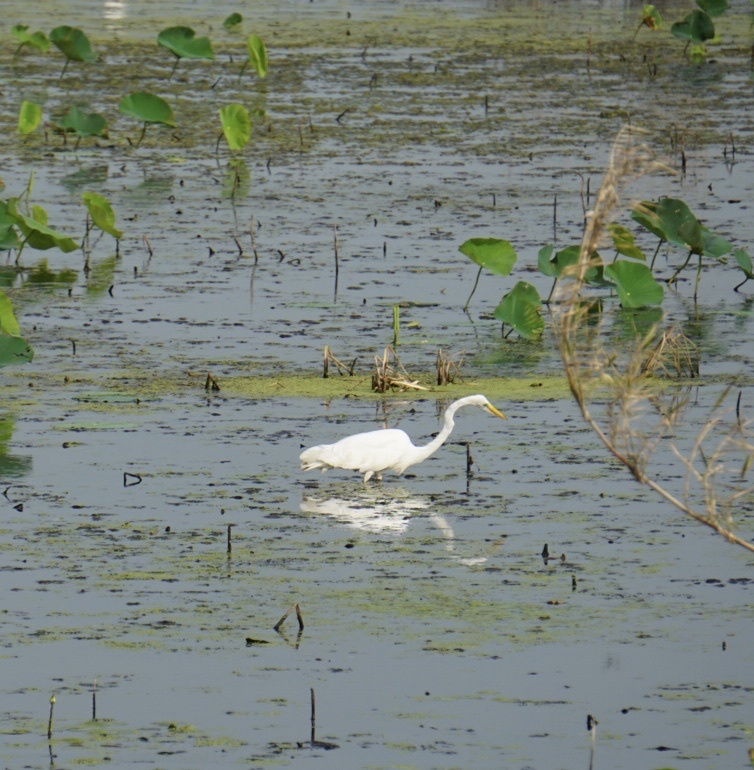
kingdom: Animalia
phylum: Chordata
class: Aves
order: Pelecaniformes
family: Ardeidae
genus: Ardea
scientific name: Ardea alba
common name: Great egret
